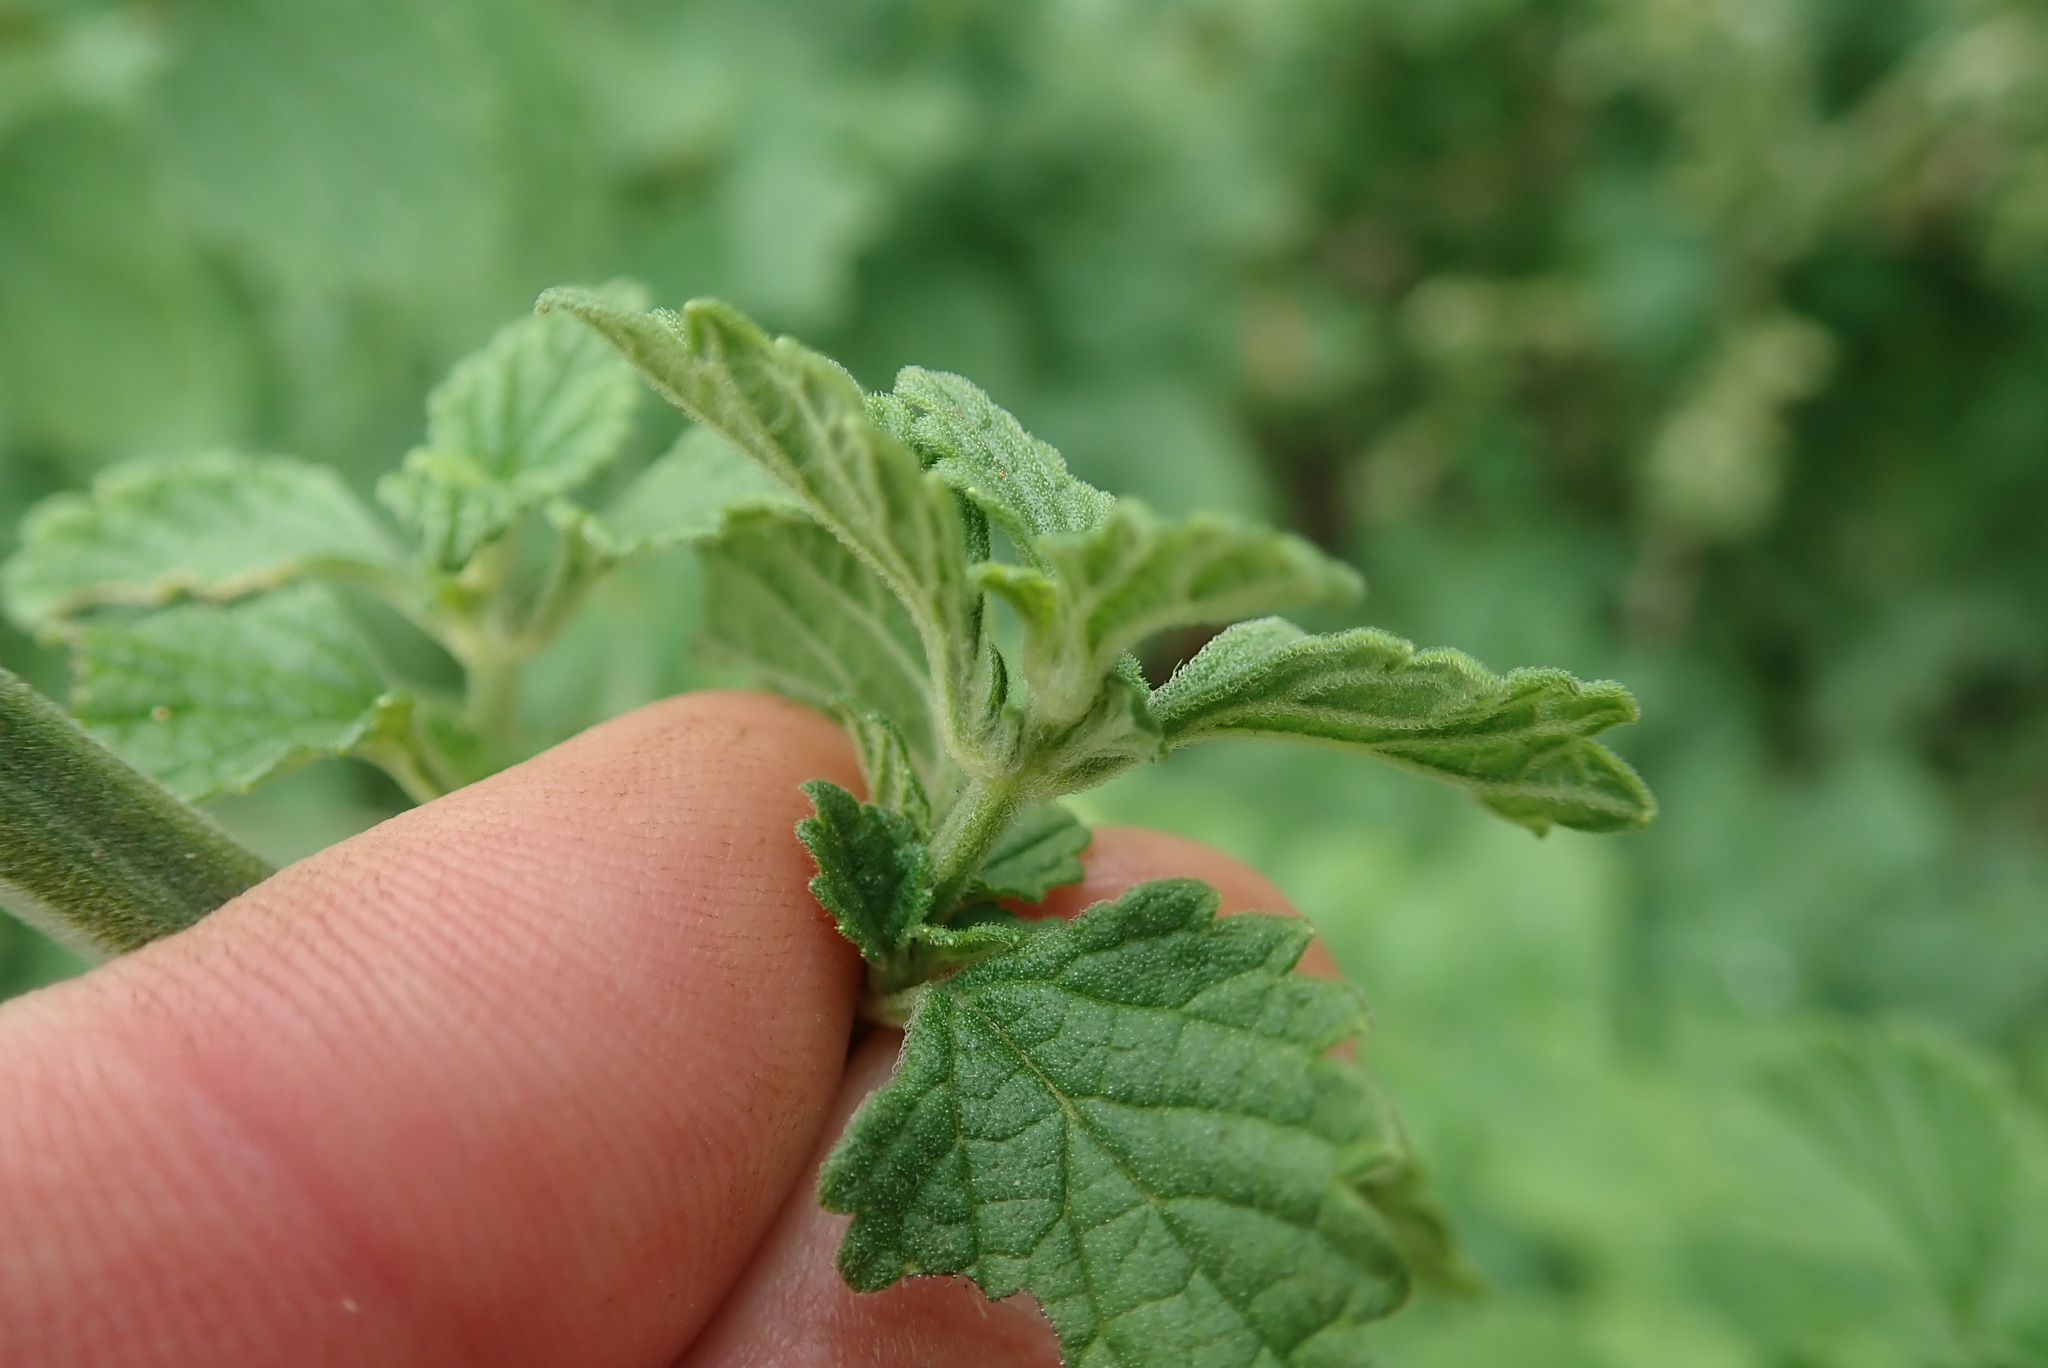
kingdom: Plantae
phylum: Tracheophyta
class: Magnoliopsida
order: Lamiales
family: Lamiaceae
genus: Leonotis
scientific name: Leonotis ocymifolia
